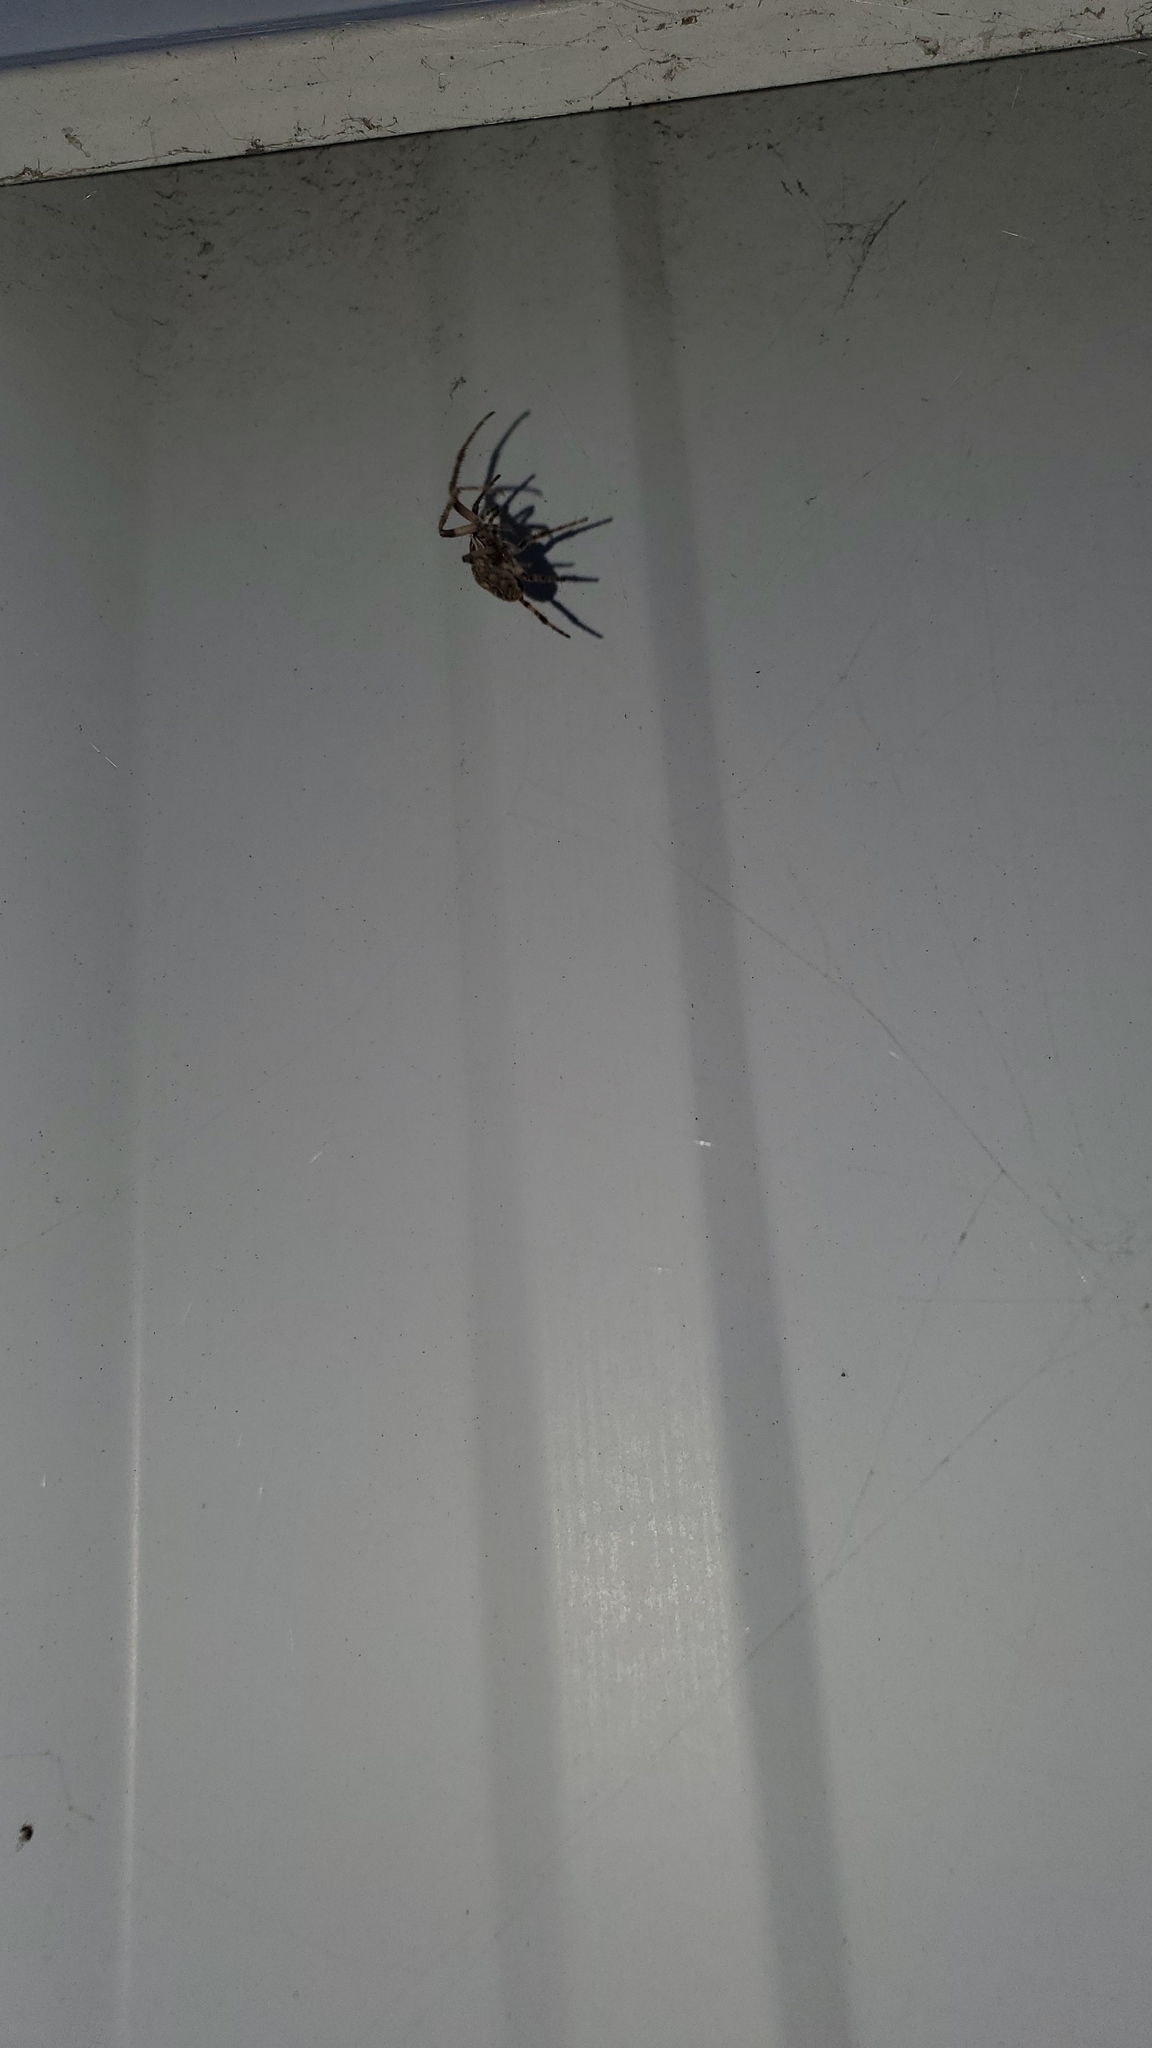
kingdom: Animalia
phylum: Arthropoda
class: Arachnida
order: Araneae
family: Araneidae
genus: Larinioides
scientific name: Larinioides sclopetarius
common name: Bridge orbweaver
